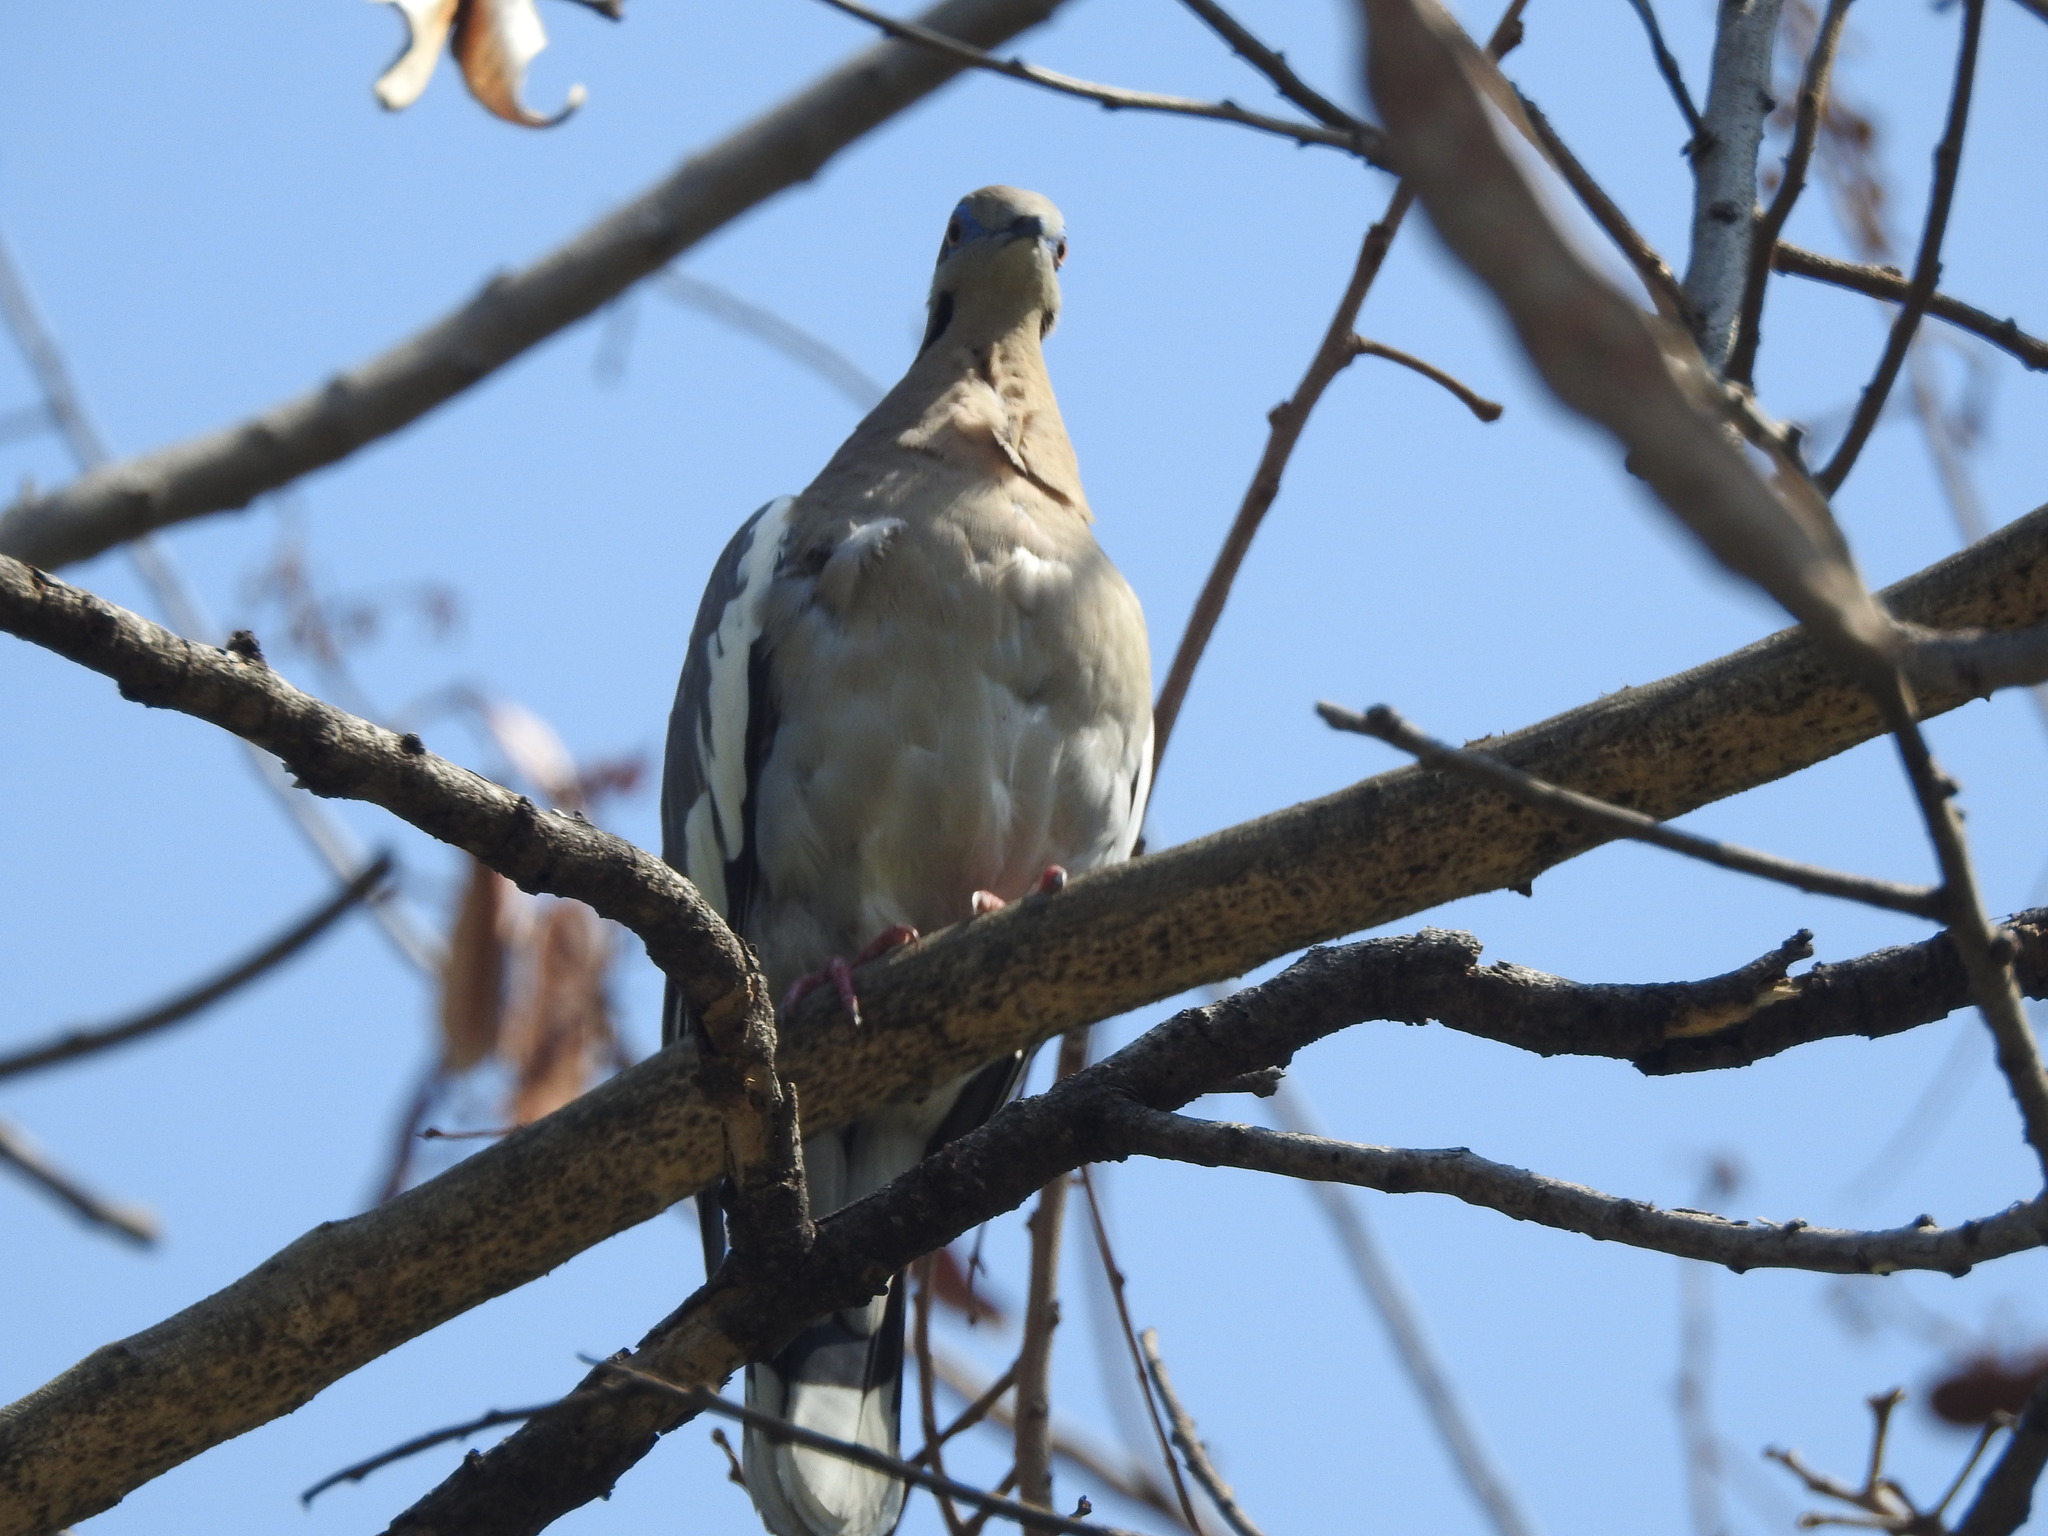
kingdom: Animalia
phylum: Chordata
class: Aves
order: Columbiformes
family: Columbidae
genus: Zenaida
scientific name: Zenaida asiatica
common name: White-winged dove
